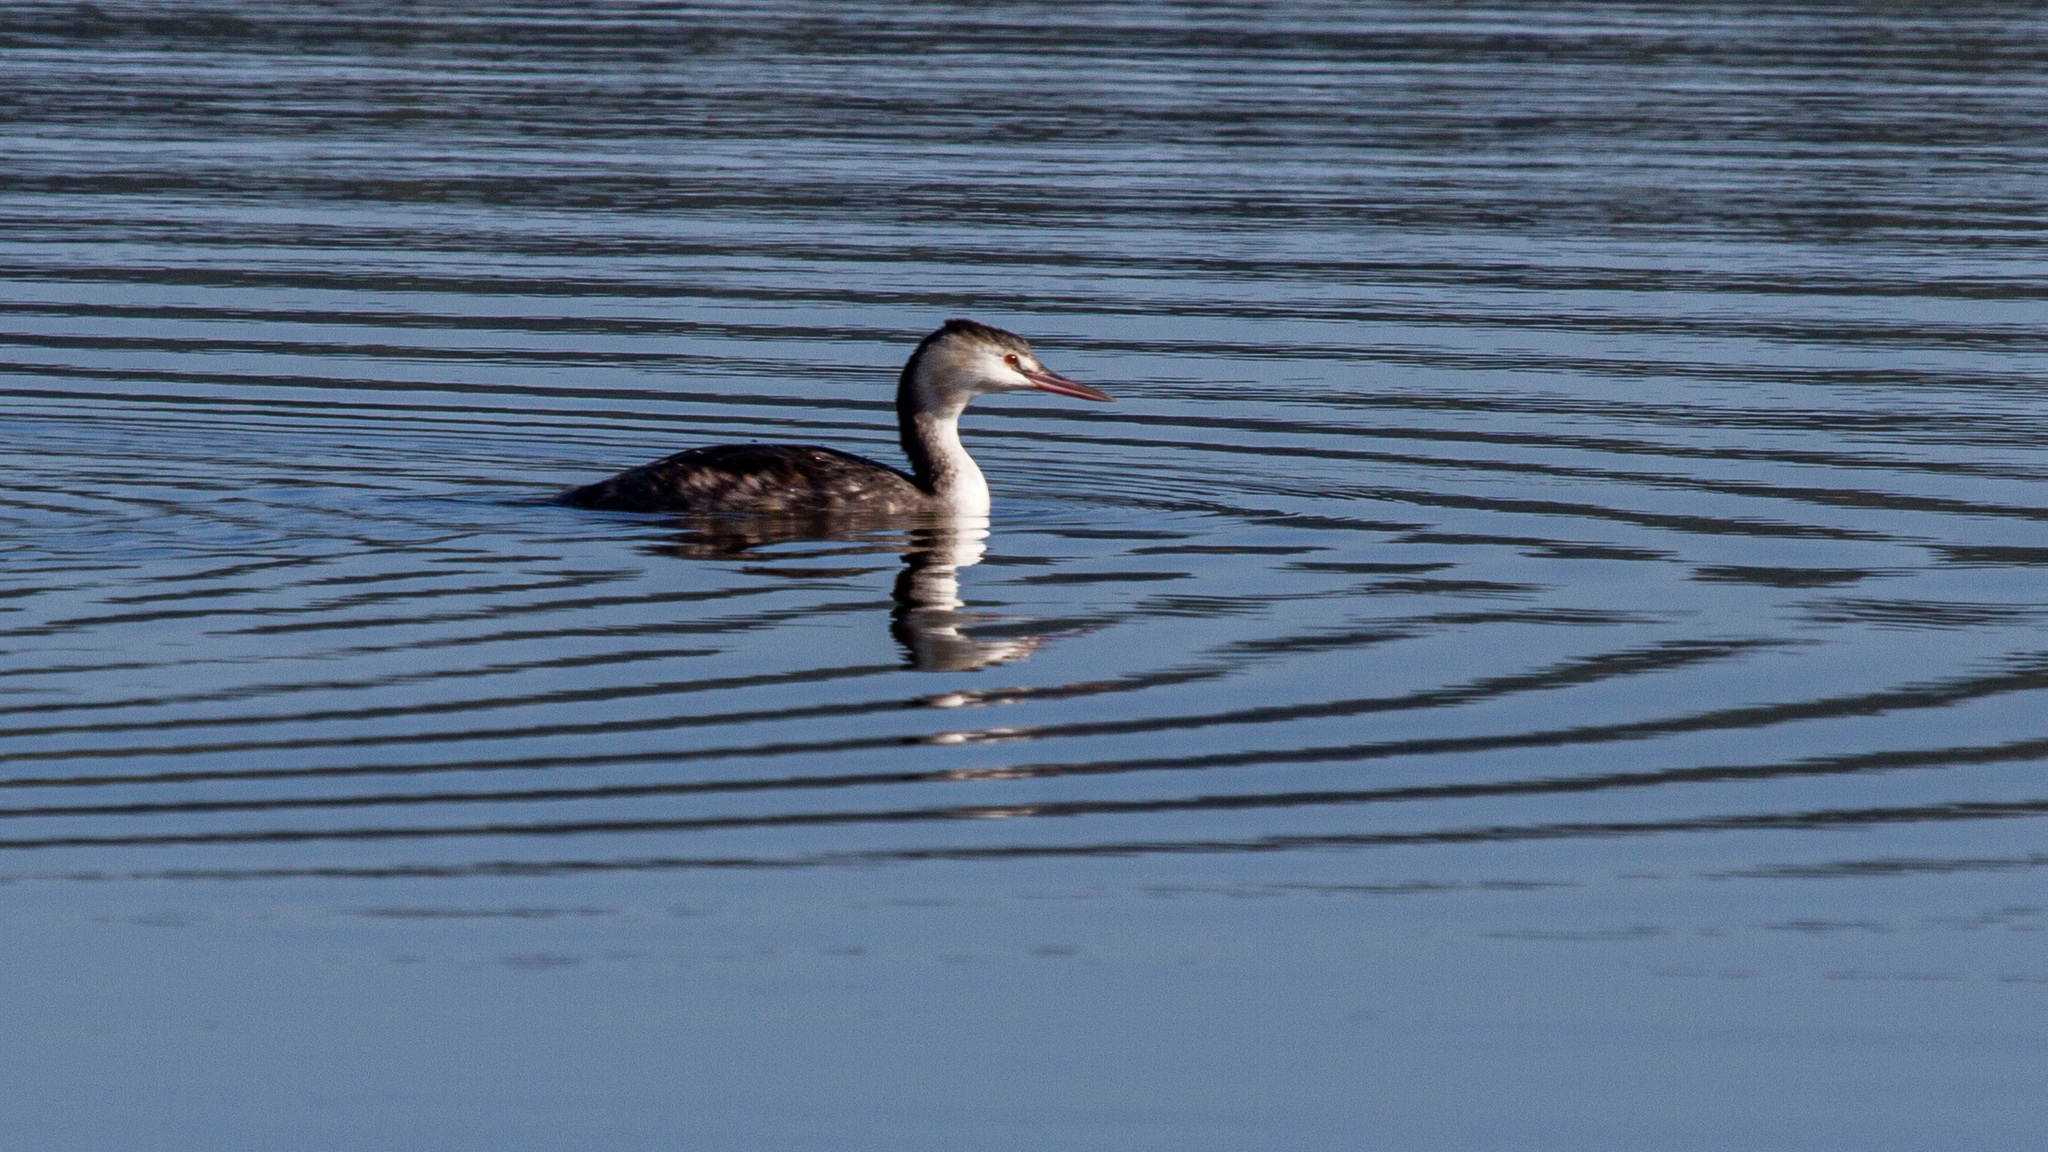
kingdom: Animalia
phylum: Chordata
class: Aves
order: Podicipediformes
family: Podicipedidae
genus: Podiceps
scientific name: Podiceps cristatus
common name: Great crested grebe
